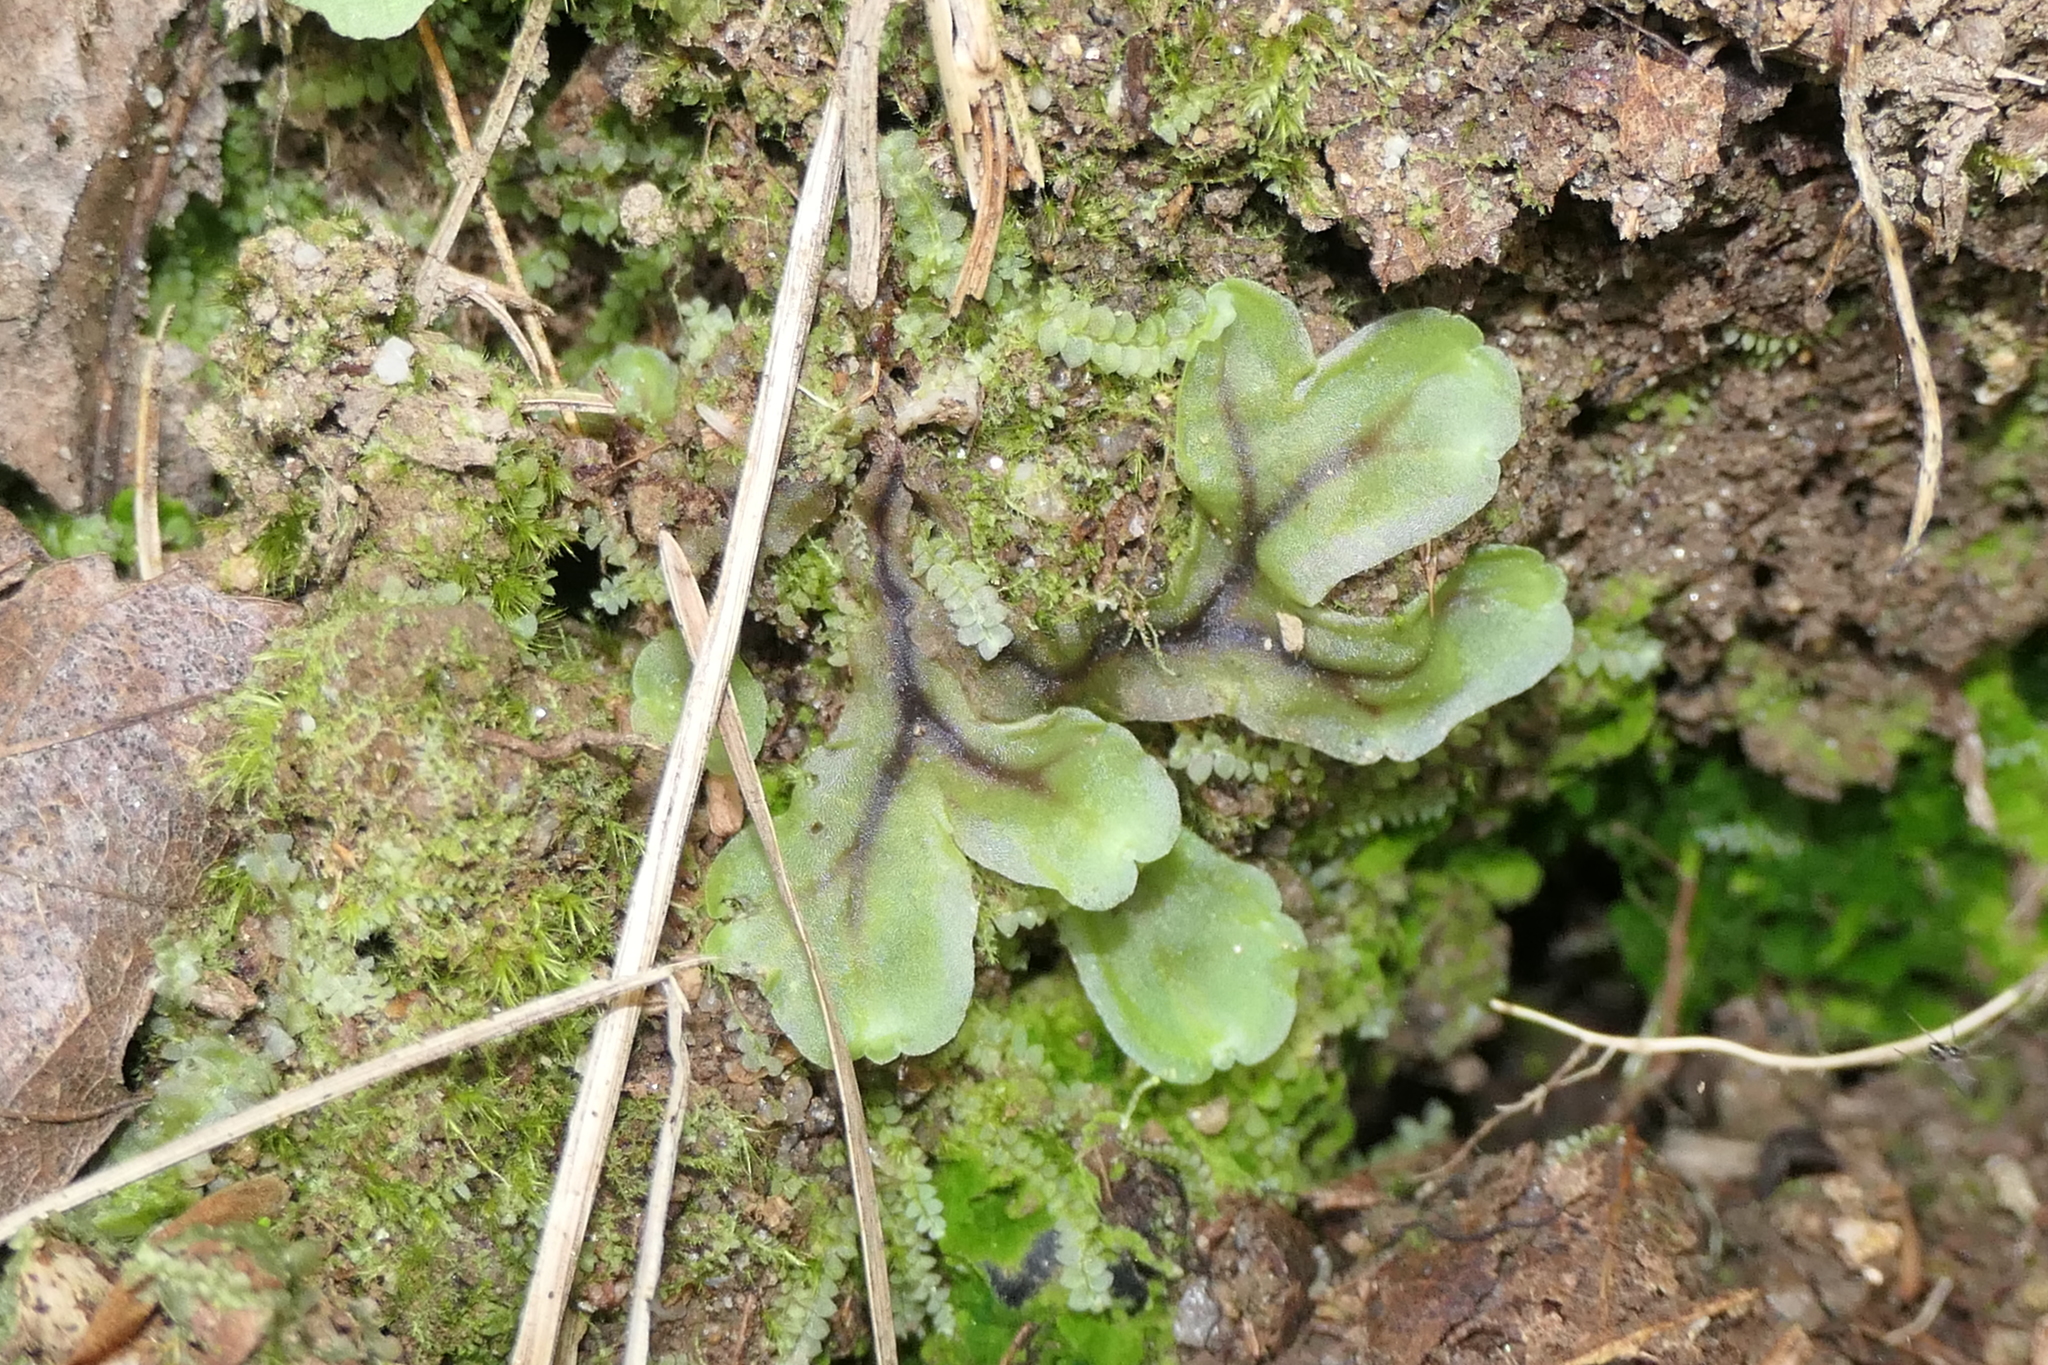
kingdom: Plantae
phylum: Marchantiophyta
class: Jungermanniopsida
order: Pelliales
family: Pelliaceae
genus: Pellia
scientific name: Pellia epiphylla
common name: Common pellia
